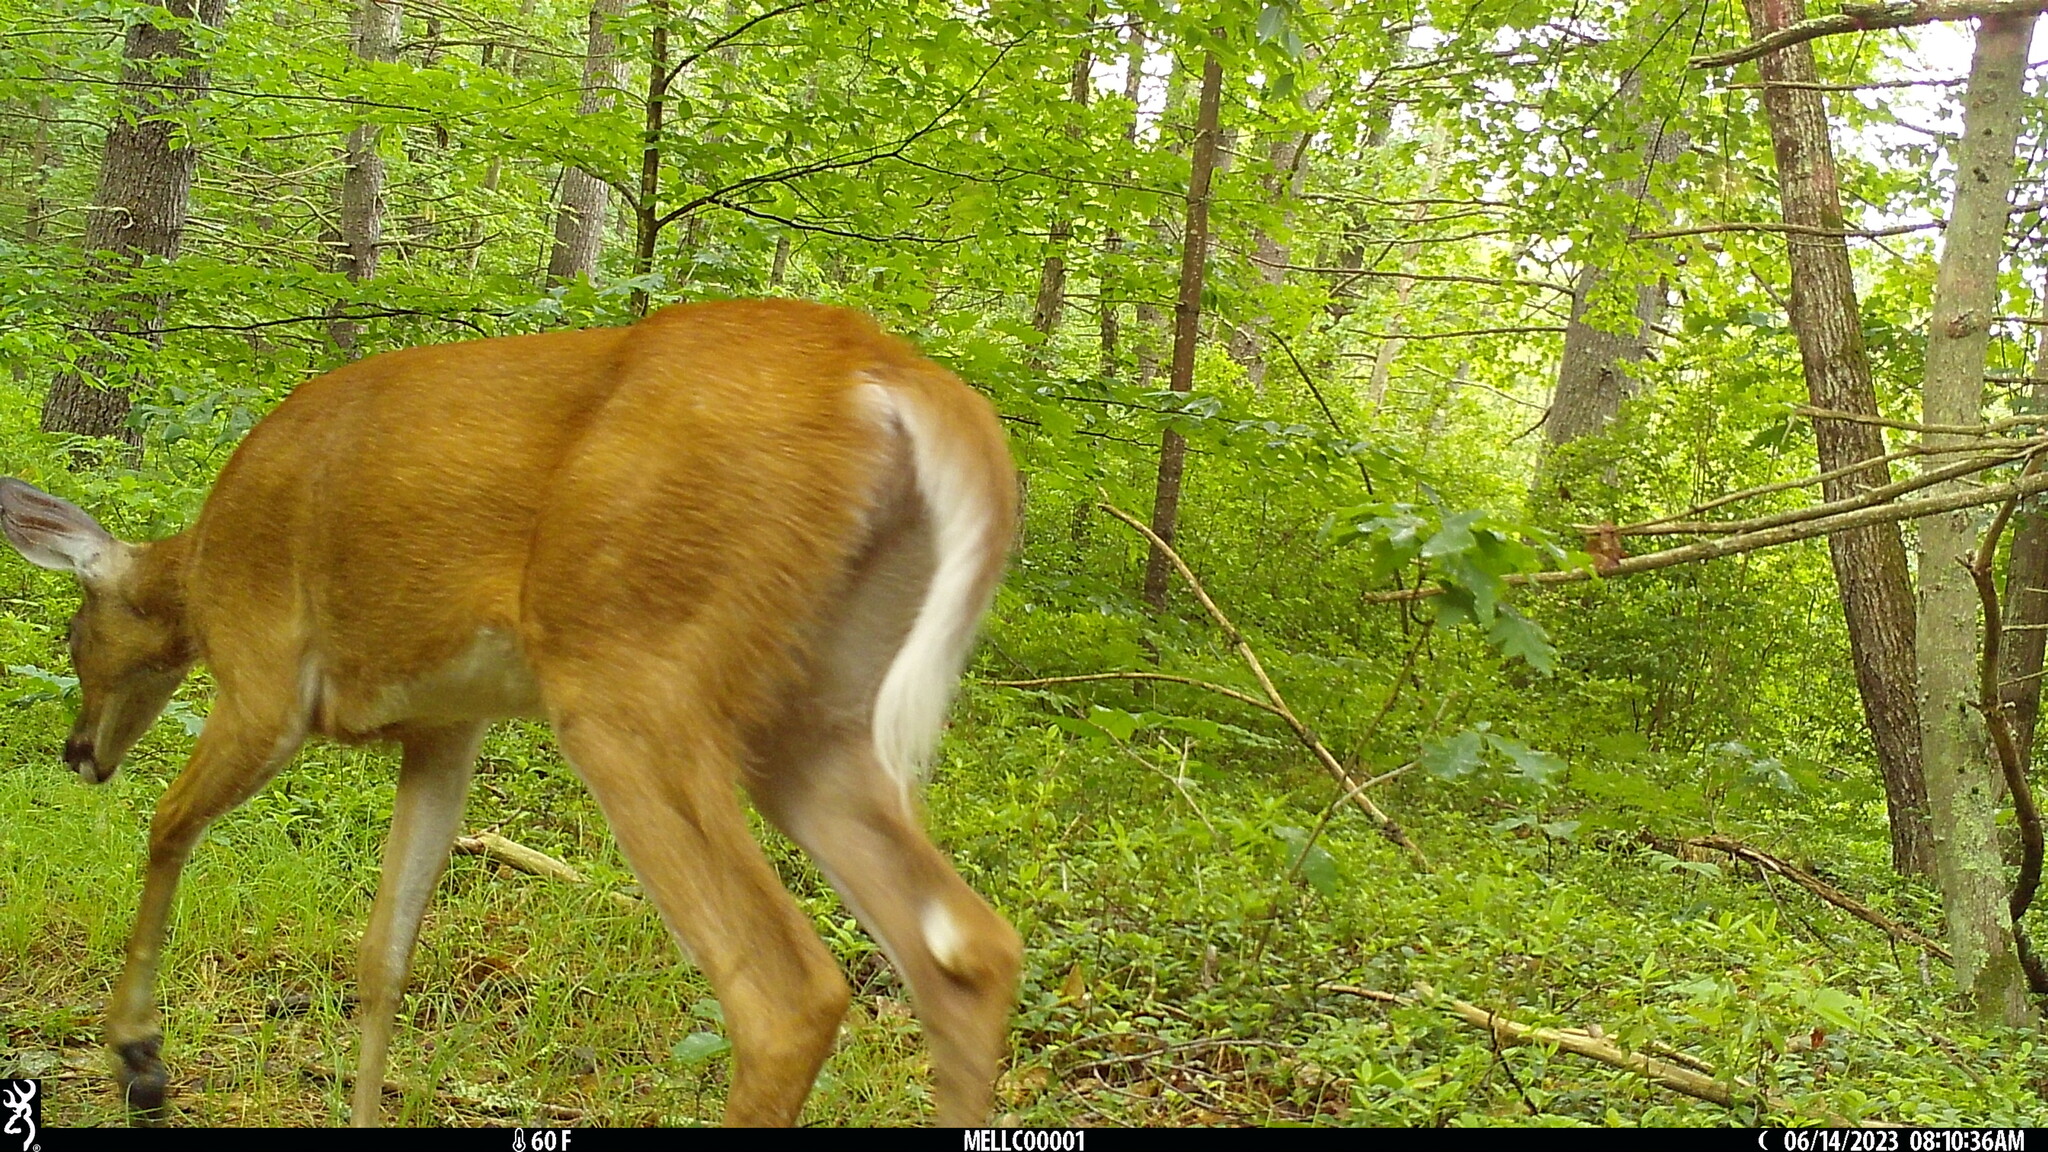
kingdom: Animalia
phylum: Chordata
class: Mammalia
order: Artiodactyla
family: Cervidae
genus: Odocoileus
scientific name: Odocoileus virginianus
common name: White-tailed deer
